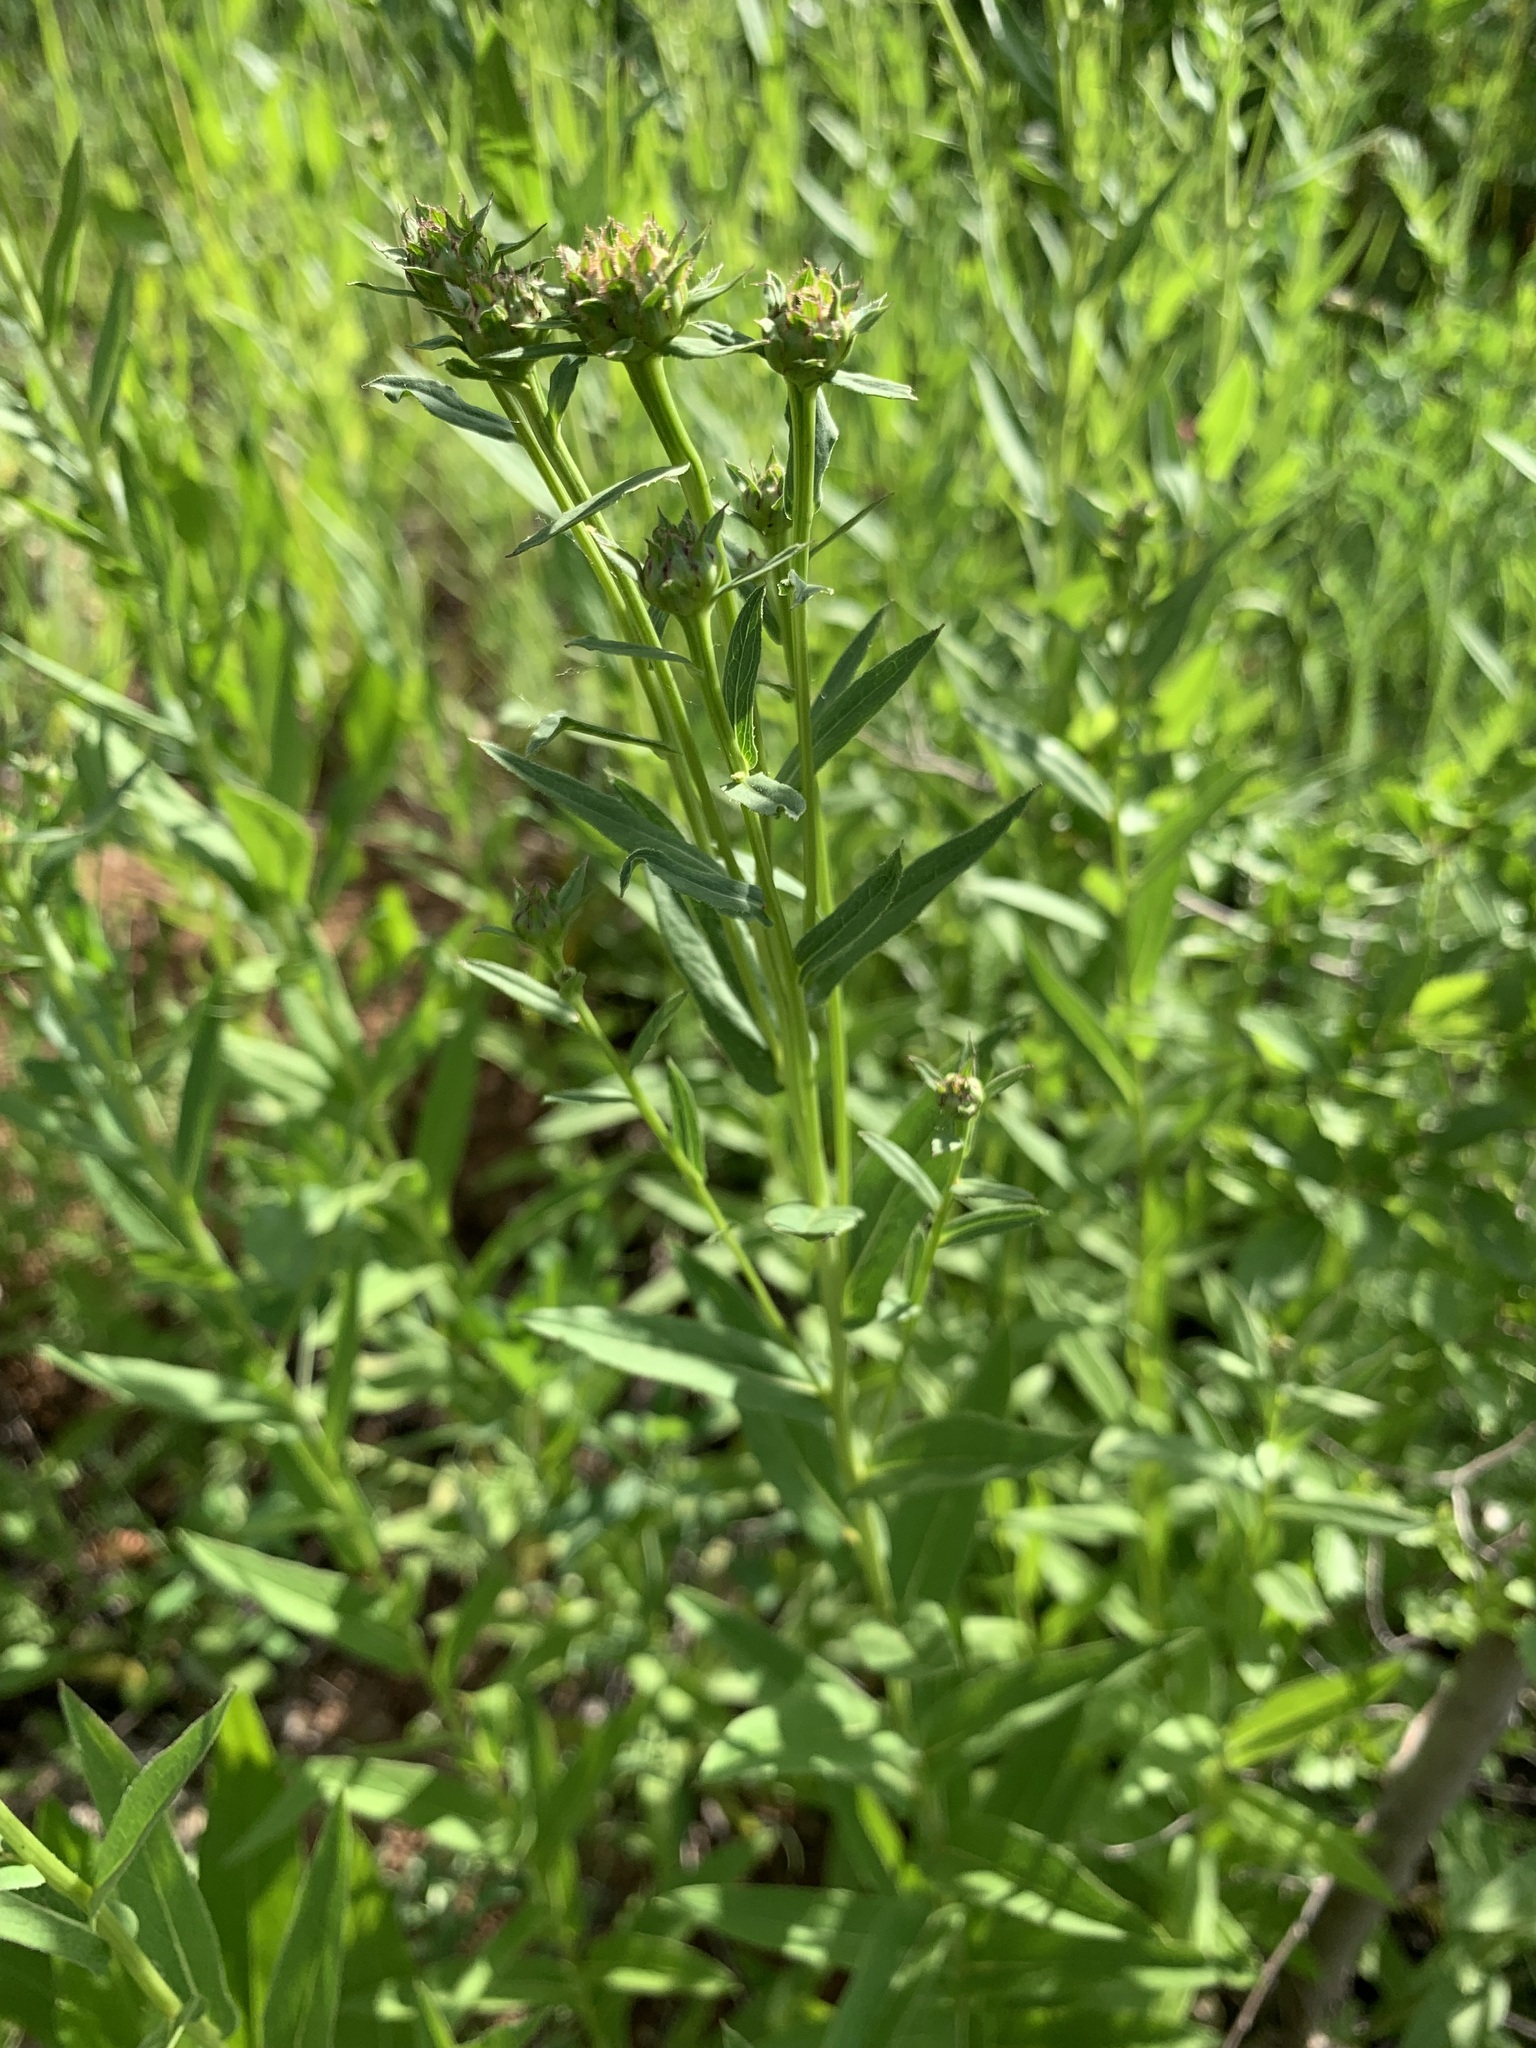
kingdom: Plantae
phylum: Tracheophyta
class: Magnoliopsida
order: Asterales
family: Asteraceae
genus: Pentanema
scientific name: Pentanema salicinum
